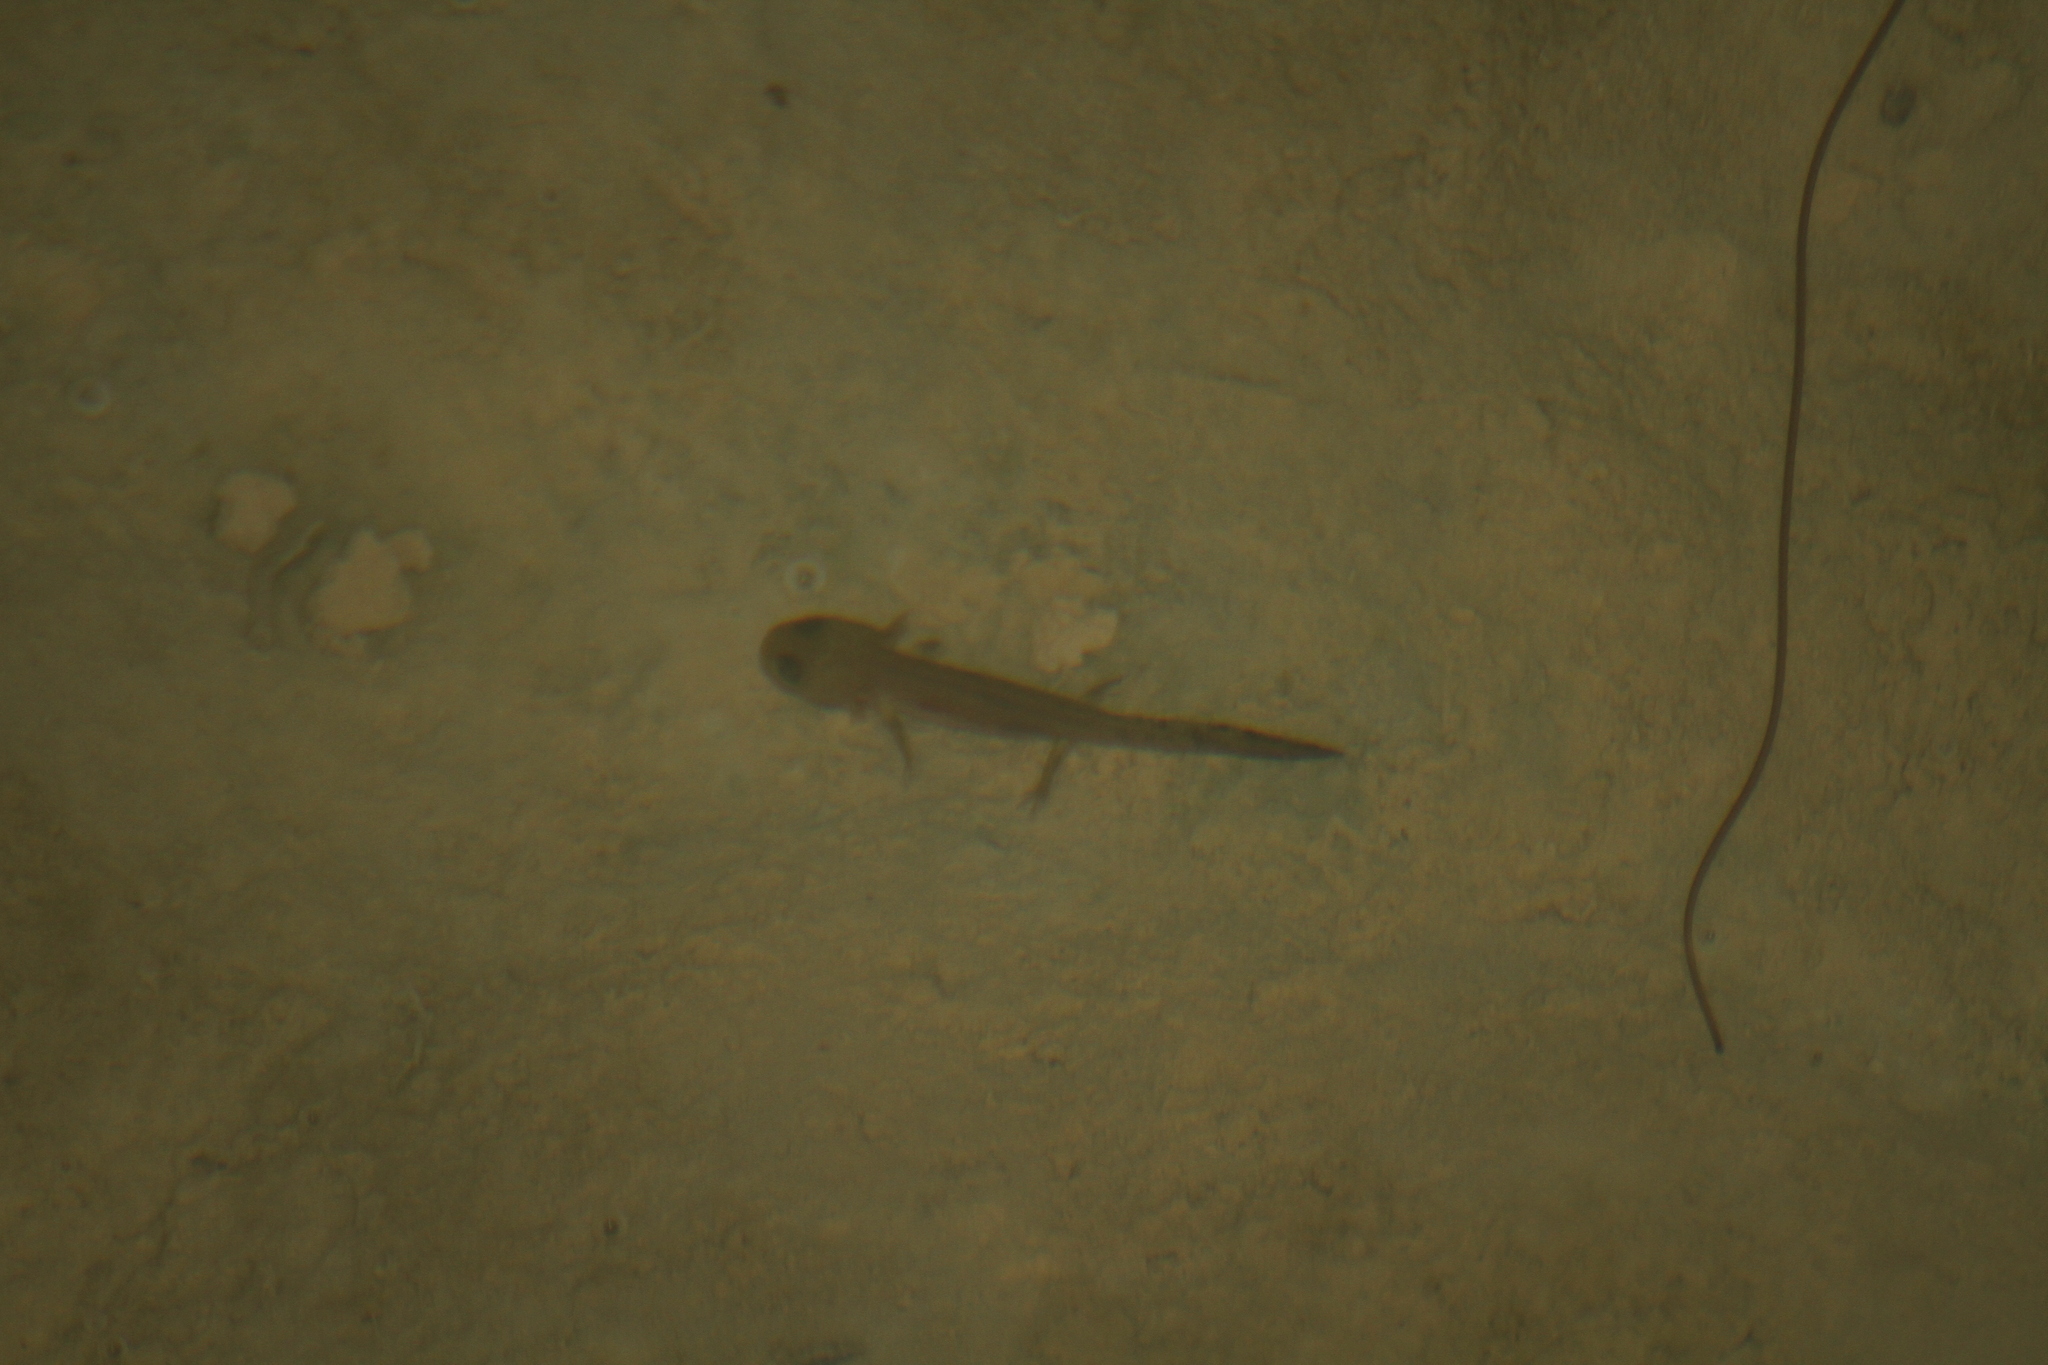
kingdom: Animalia
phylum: Chordata
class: Amphibia
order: Caudata
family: Salamandridae
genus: Salamandra
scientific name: Salamandra salamandra
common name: Fire salamander
